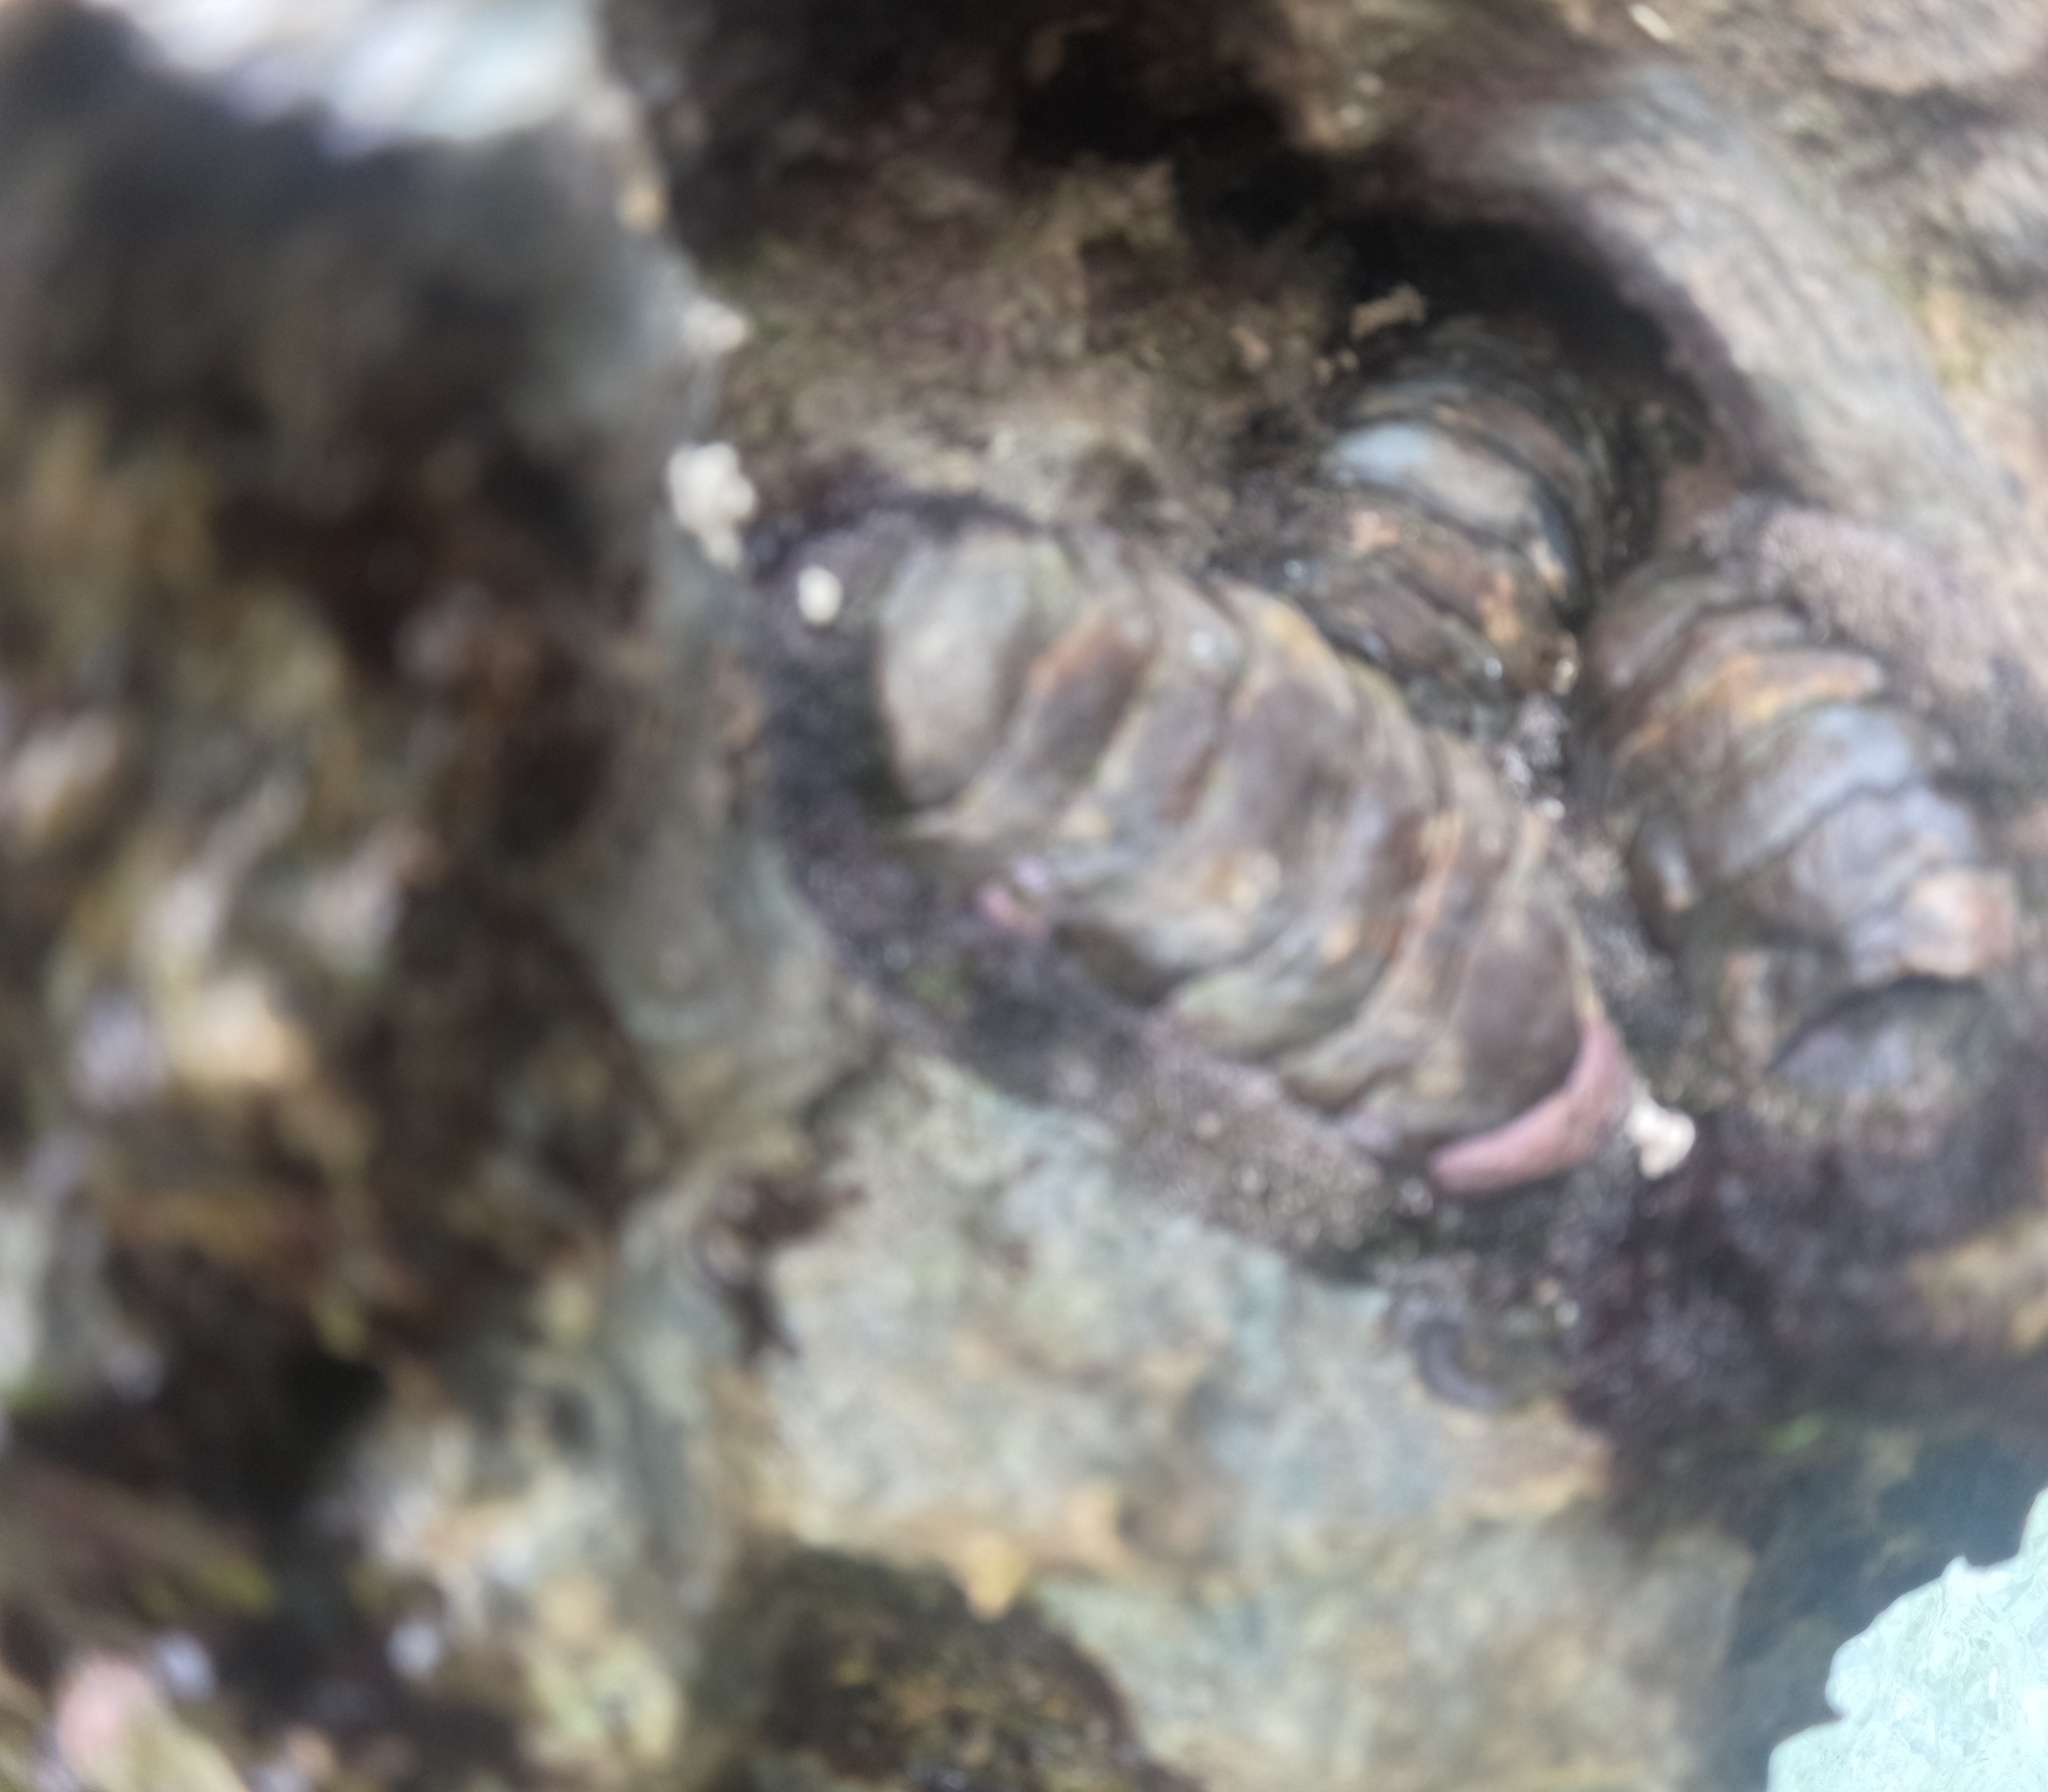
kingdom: Animalia
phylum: Mollusca
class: Polyplacophora
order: Chitonida
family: Chitonidae
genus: Acanthopleura
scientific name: Acanthopleura granulata
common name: West indian fuzzy chiton
